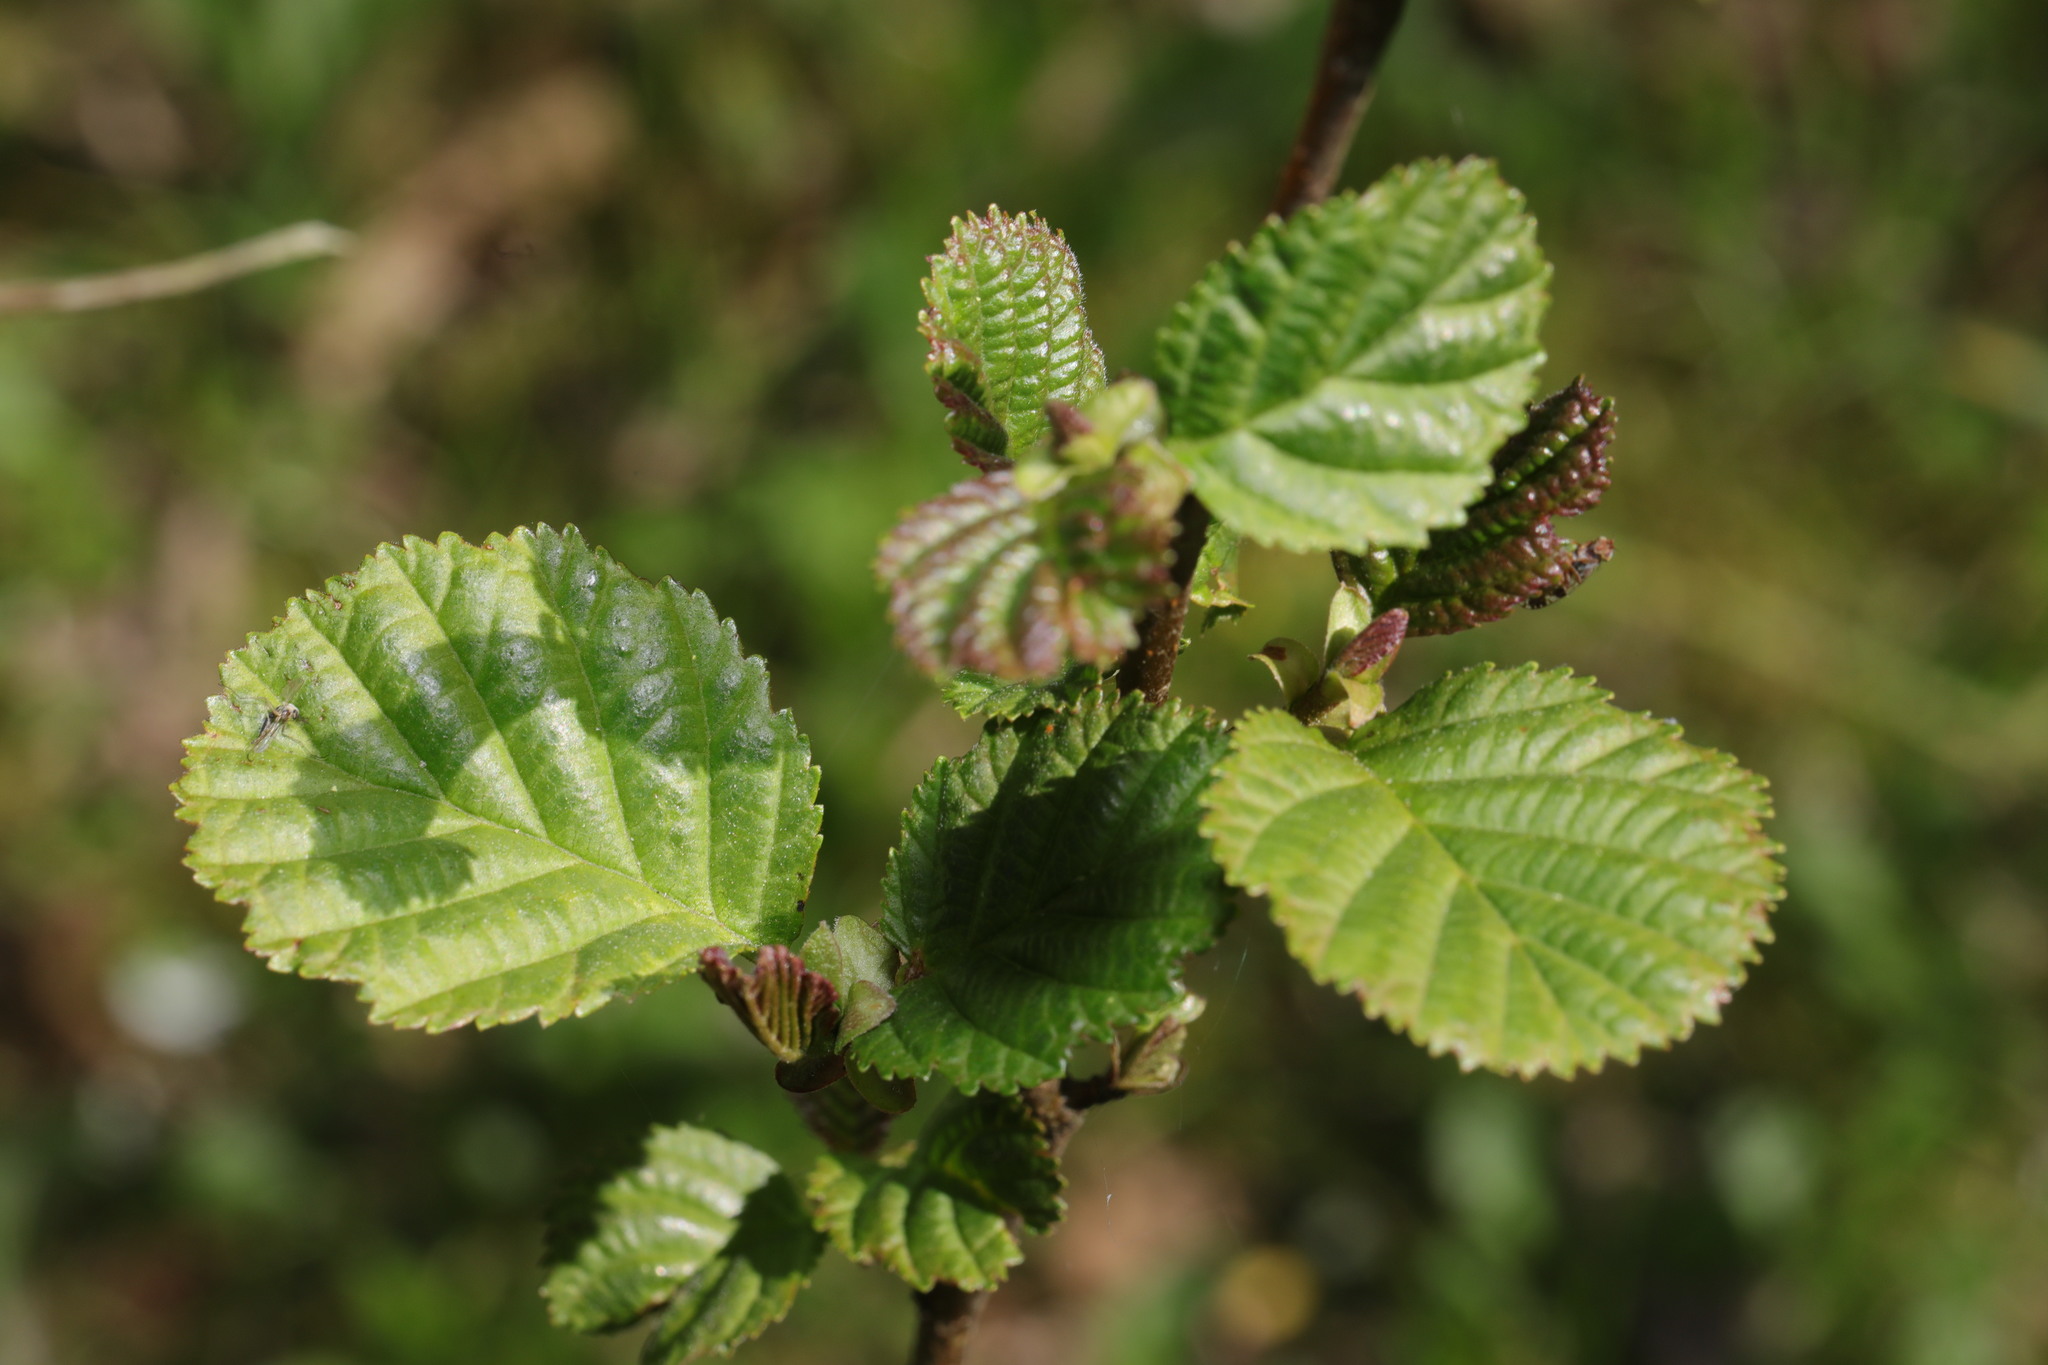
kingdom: Plantae
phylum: Tracheophyta
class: Magnoliopsida
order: Fagales
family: Betulaceae
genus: Alnus
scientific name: Alnus glutinosa
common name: Black alder
